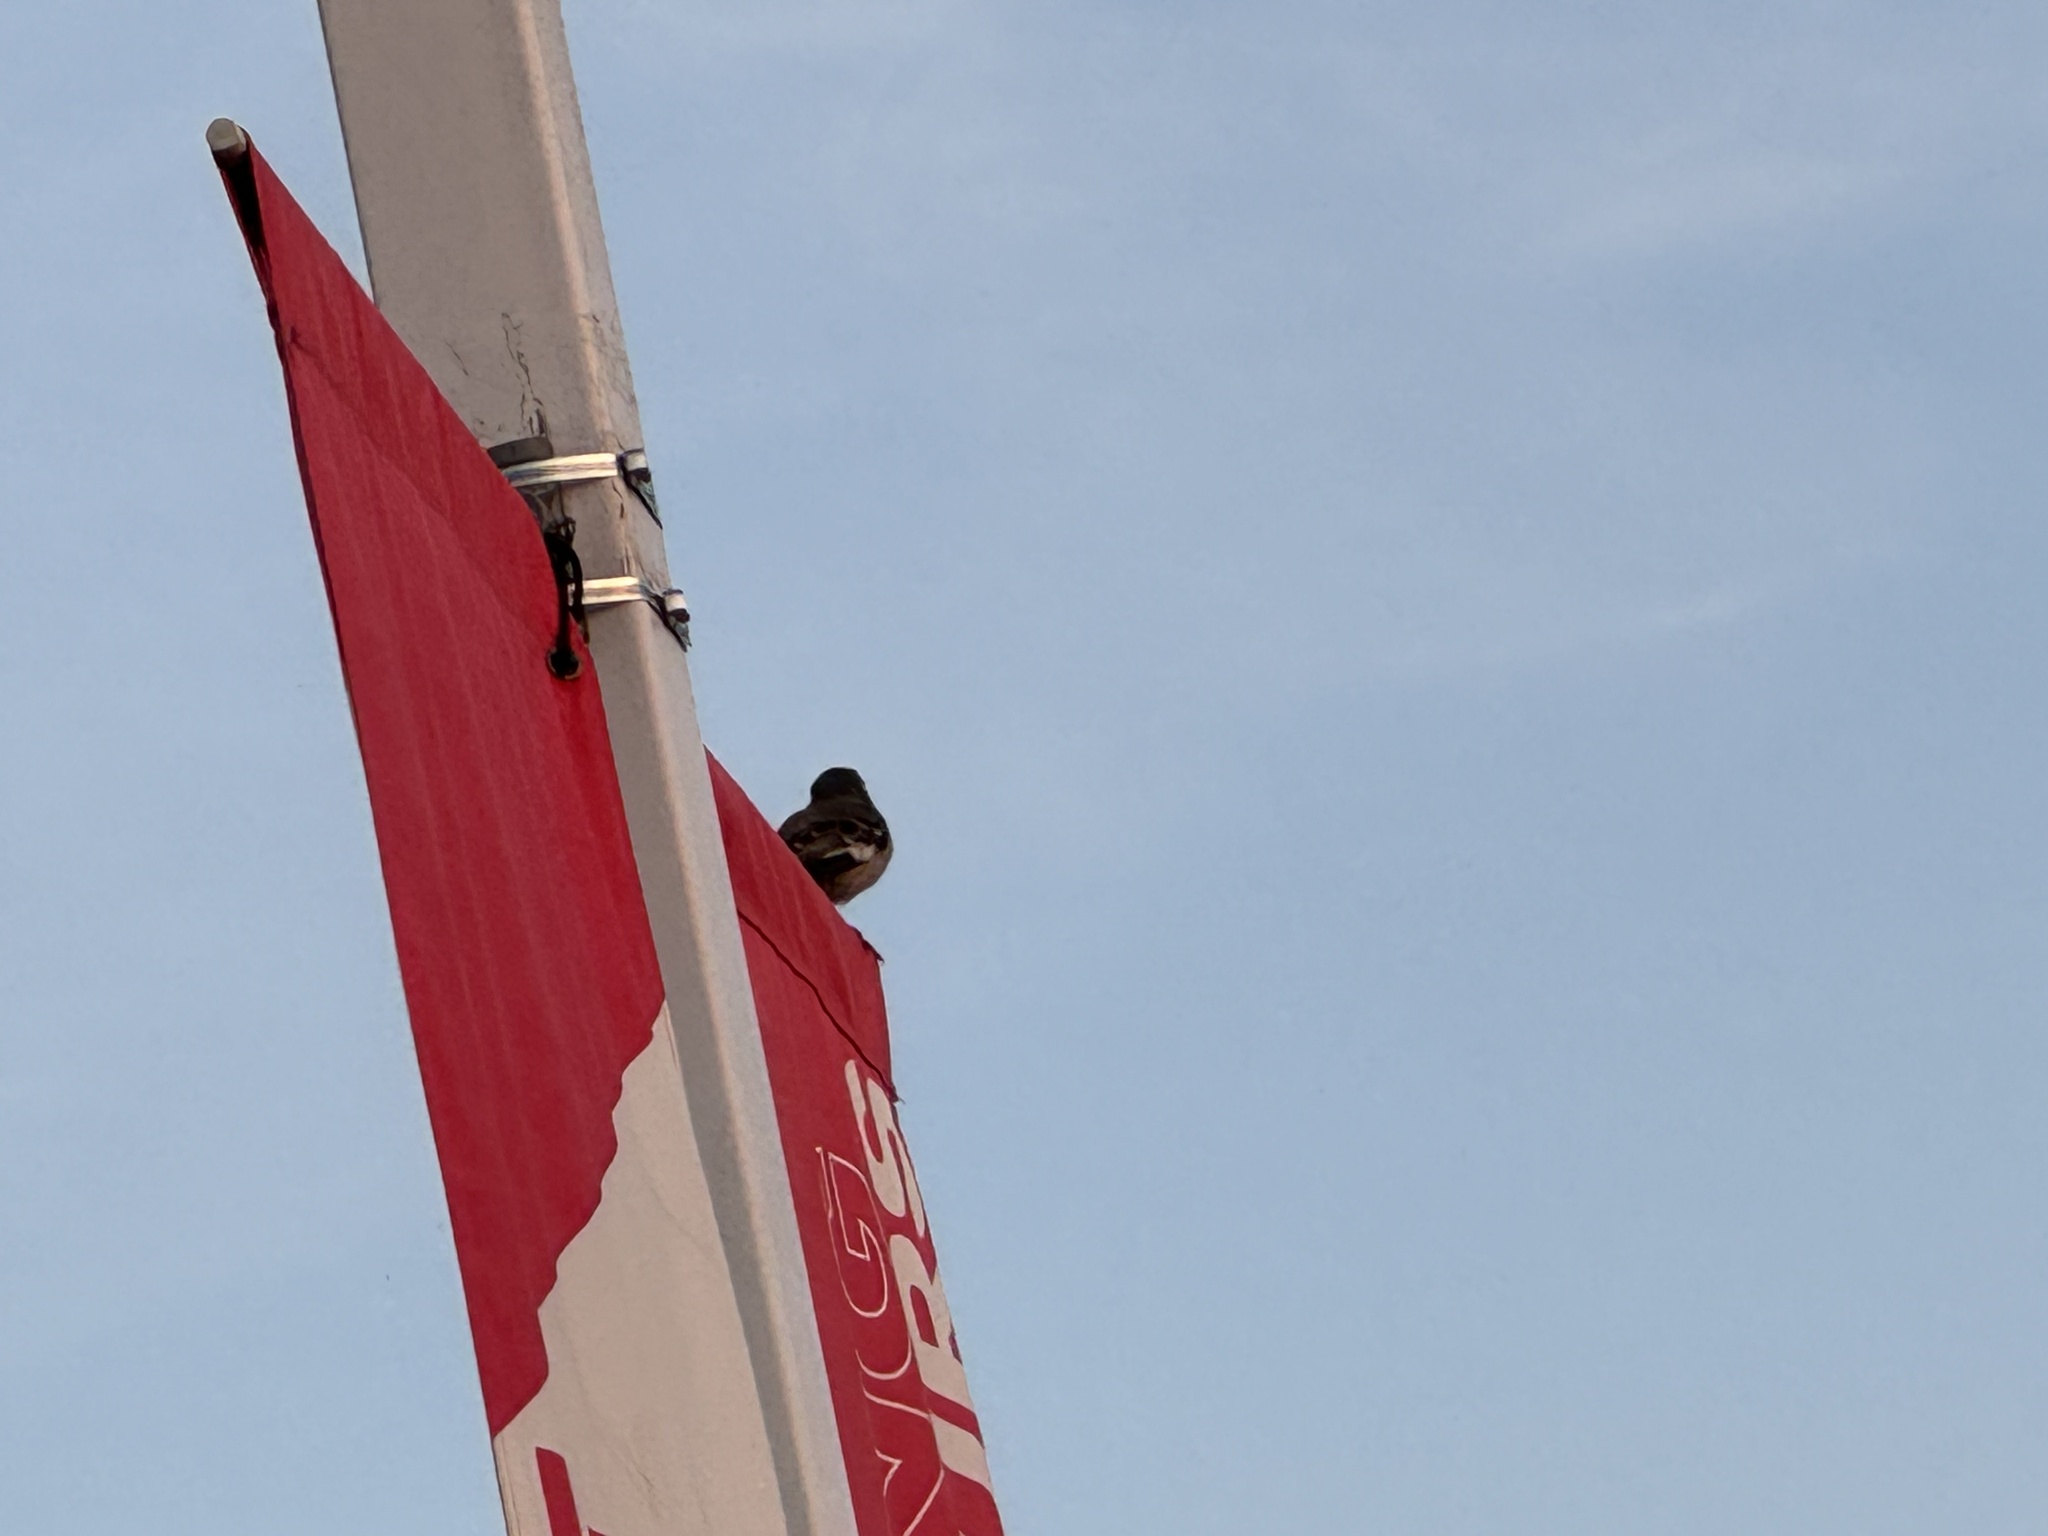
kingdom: Animalia
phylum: Chordata
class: Aves
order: Passeriformes
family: Mimidae
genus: Mimus
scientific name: Mimus polyglottos
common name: Northern mockingbird
